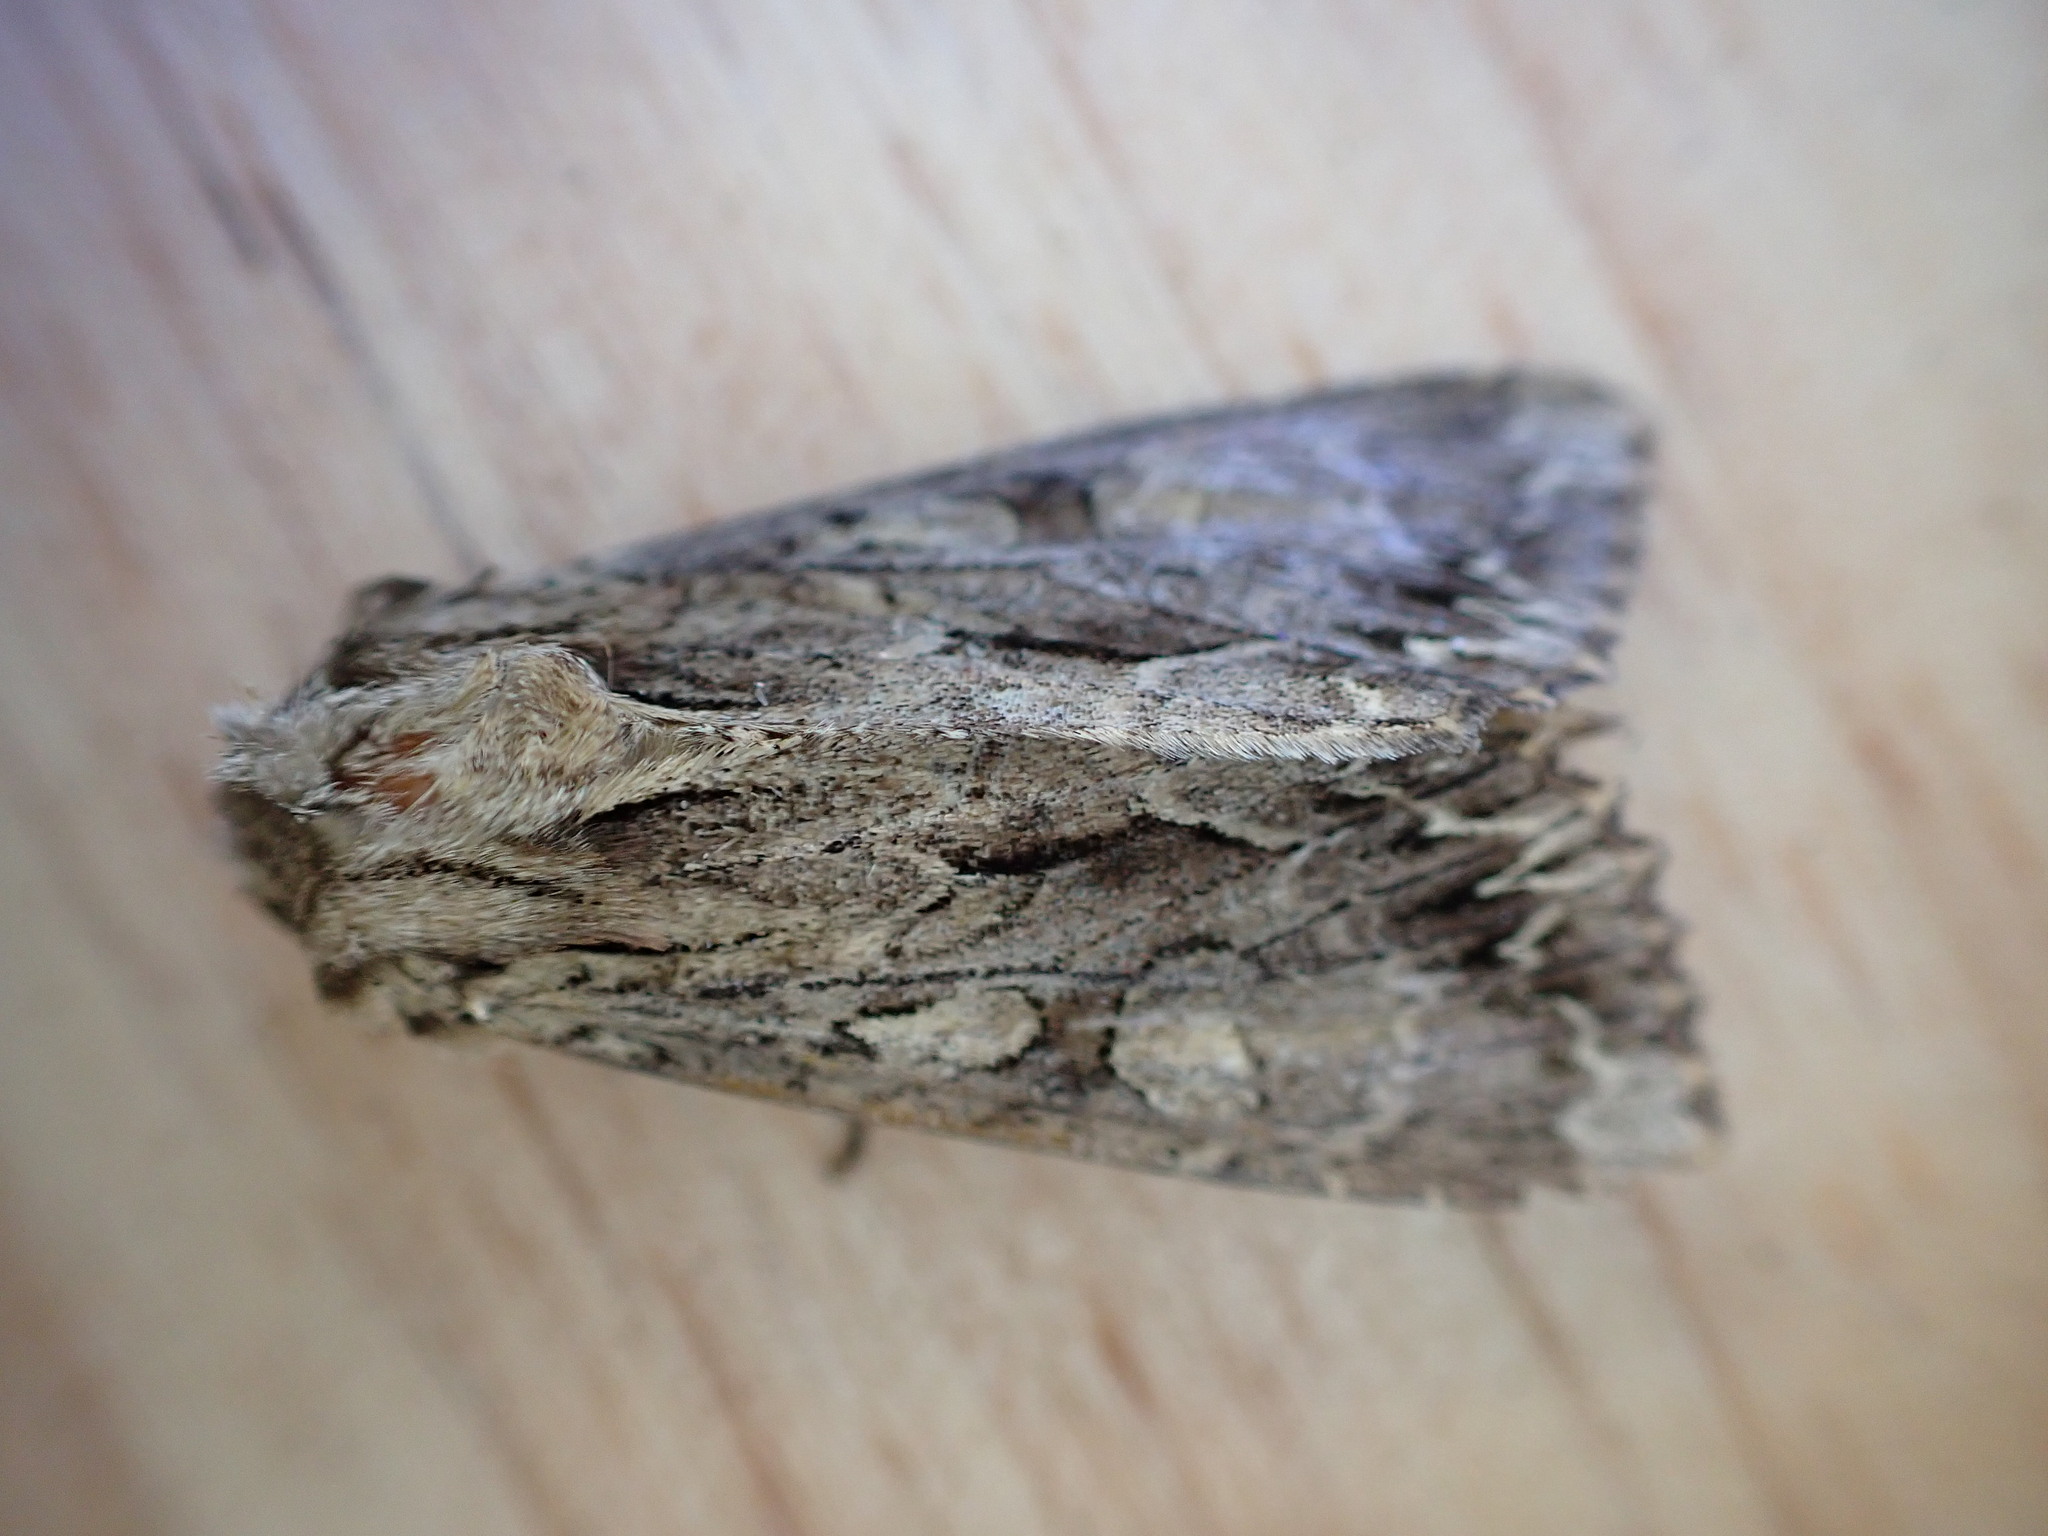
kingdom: Animalia
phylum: Arthropoda
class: Insecta
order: Lepidoptera
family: Noctuidae
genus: Apamea
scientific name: Apamea monoglypha
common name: Dark arches
